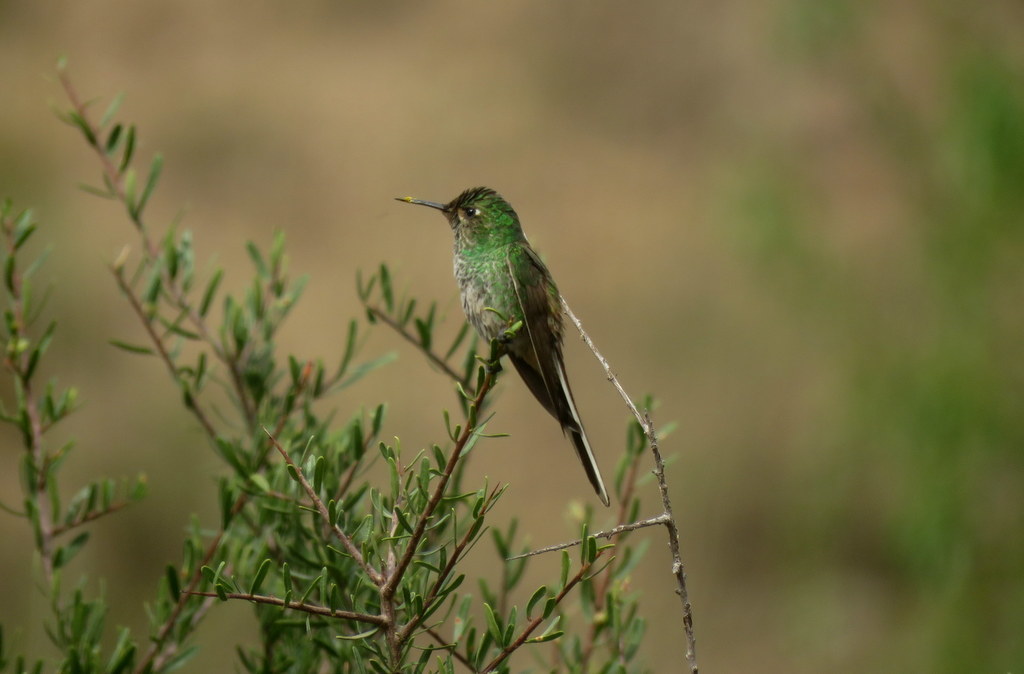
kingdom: Animalia
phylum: Chordata
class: Aves
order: Apodiformes
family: Trochilidae
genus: Sappho
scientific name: Sappho sparganurus
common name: Red-tailed comet
